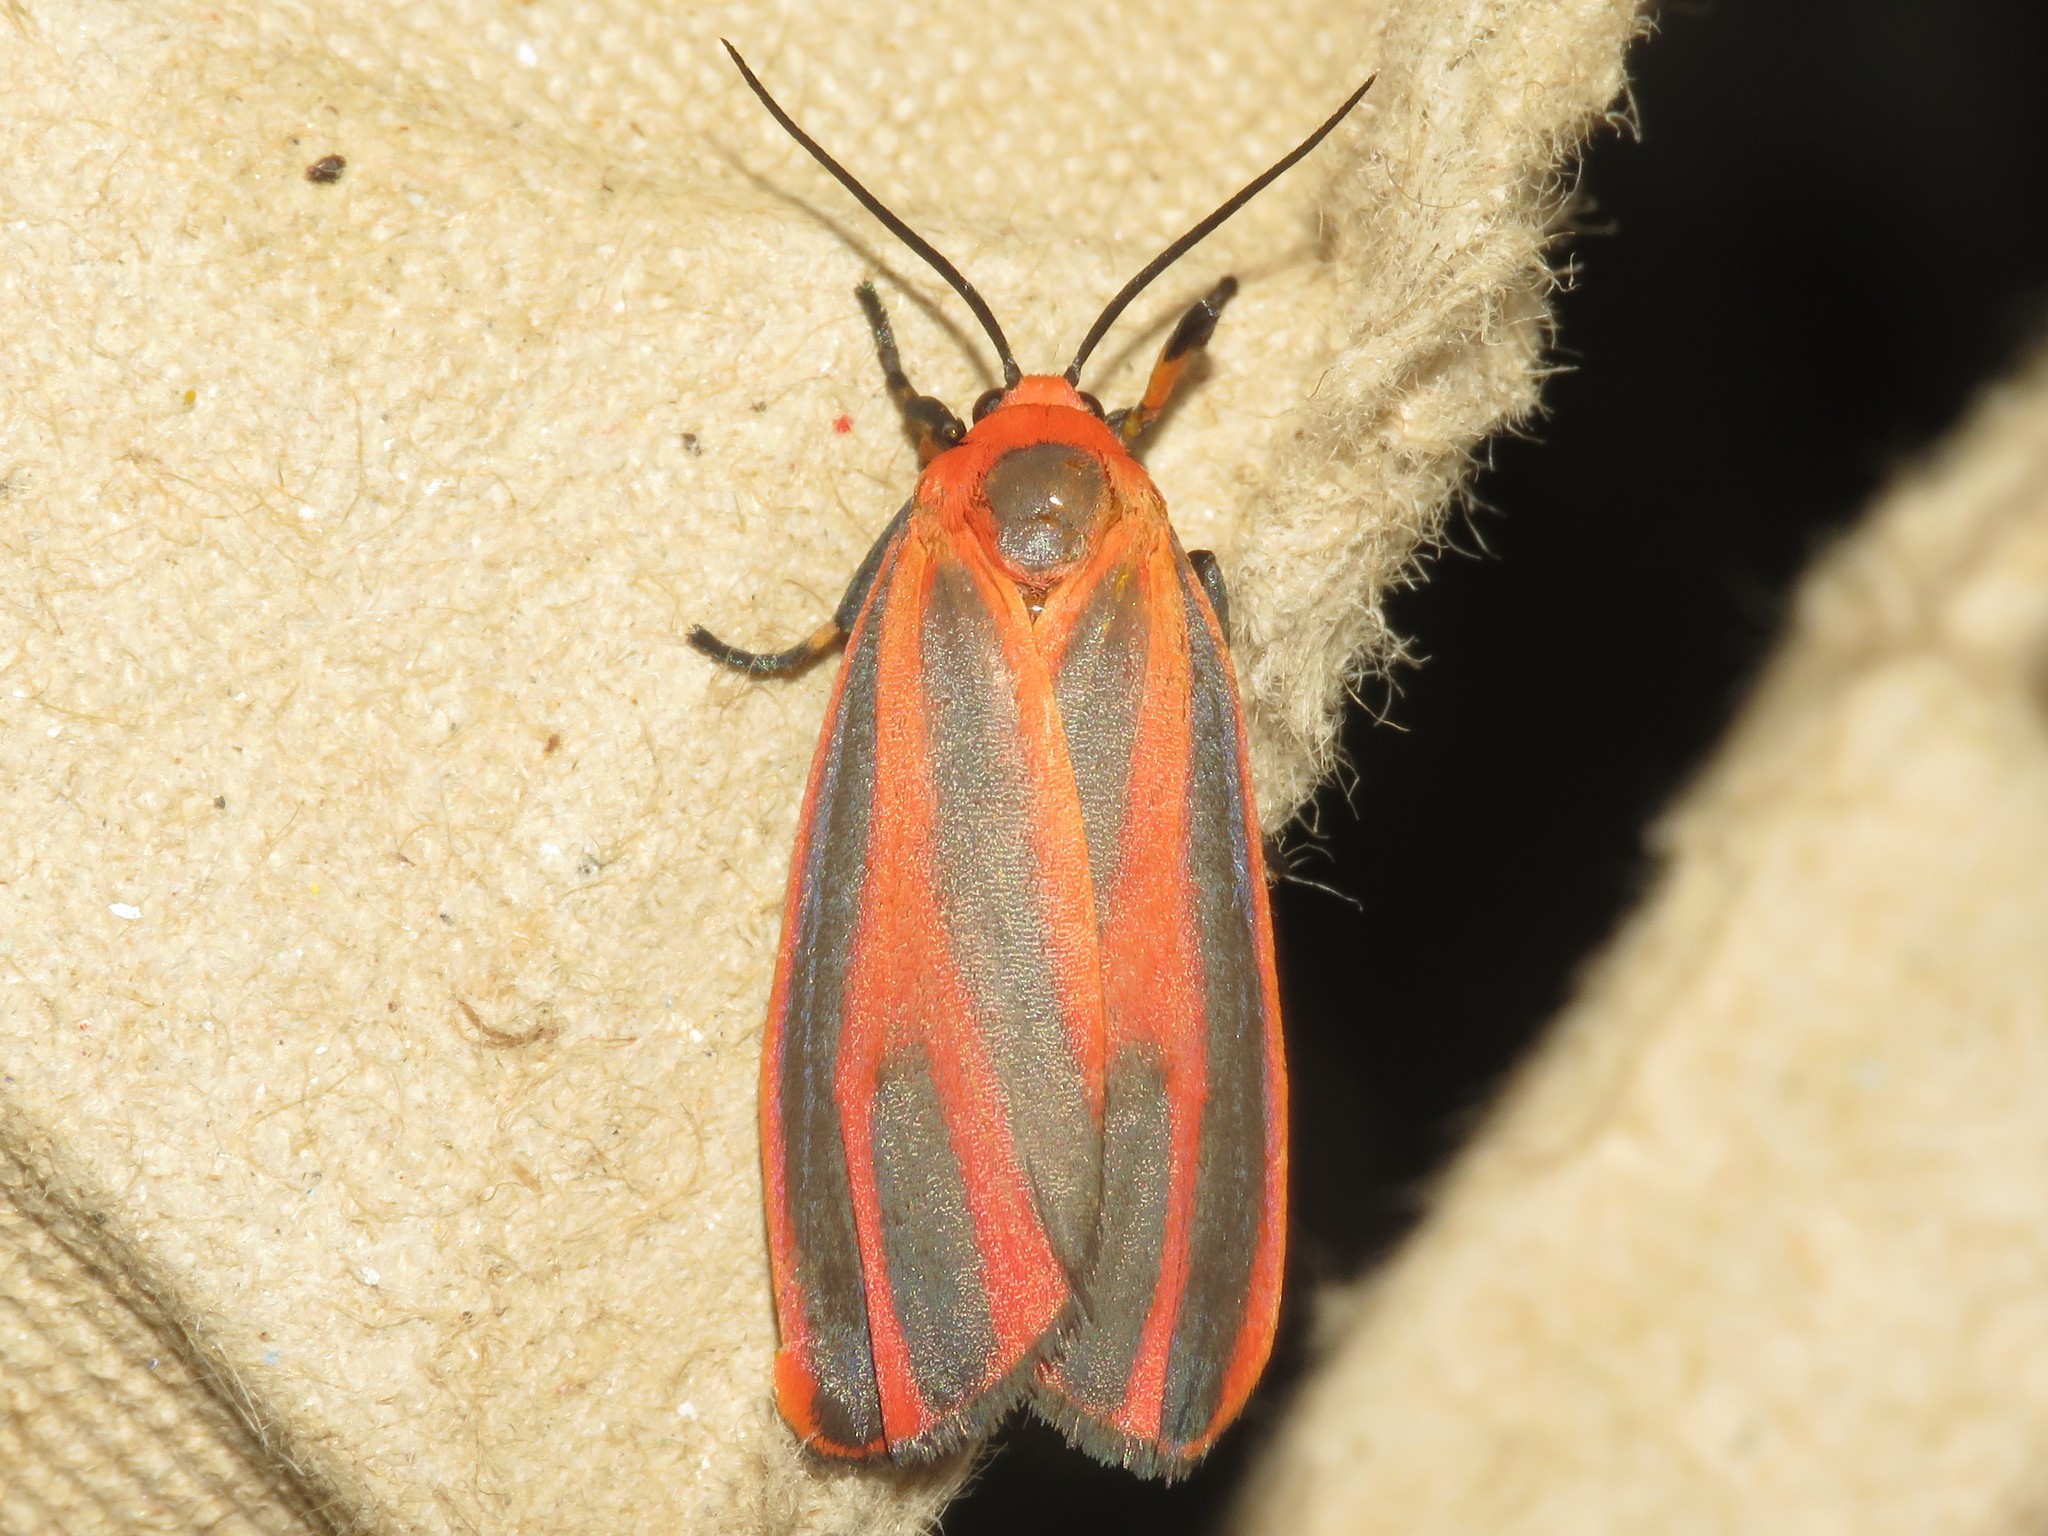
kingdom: Animalia
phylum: Arthropoda
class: Insecta
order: Lepidoptera
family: Erebidae
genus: Hypoprepia
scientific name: Hypoprepia miniata
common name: Scarlet-winged lichen moth
